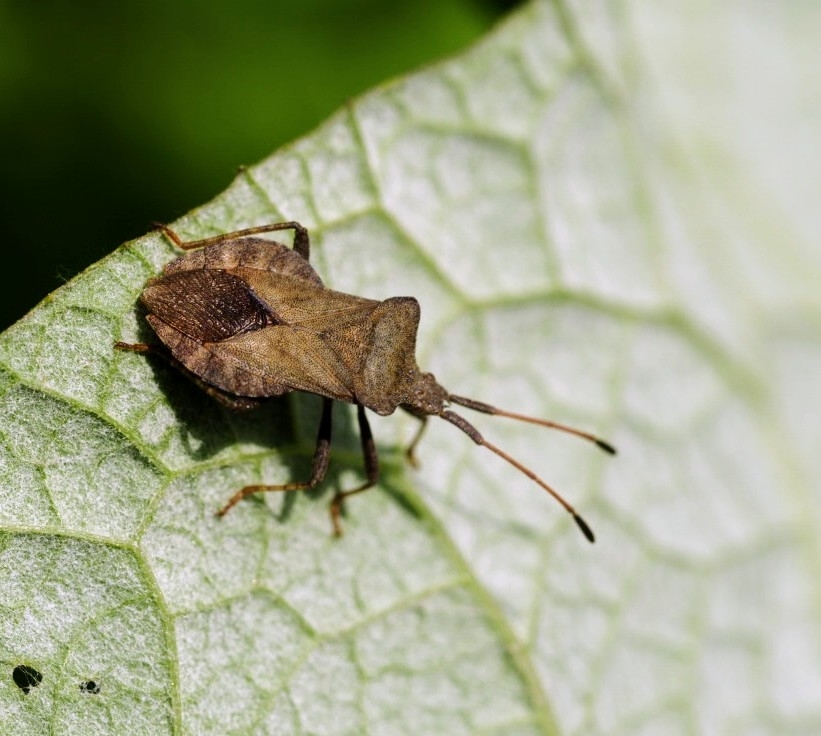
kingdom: Animalia
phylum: Arthropoda
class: Insecta
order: Hemiptera
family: Coreidae
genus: Coreus
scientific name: Coreus marginatus
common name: Dock bug
